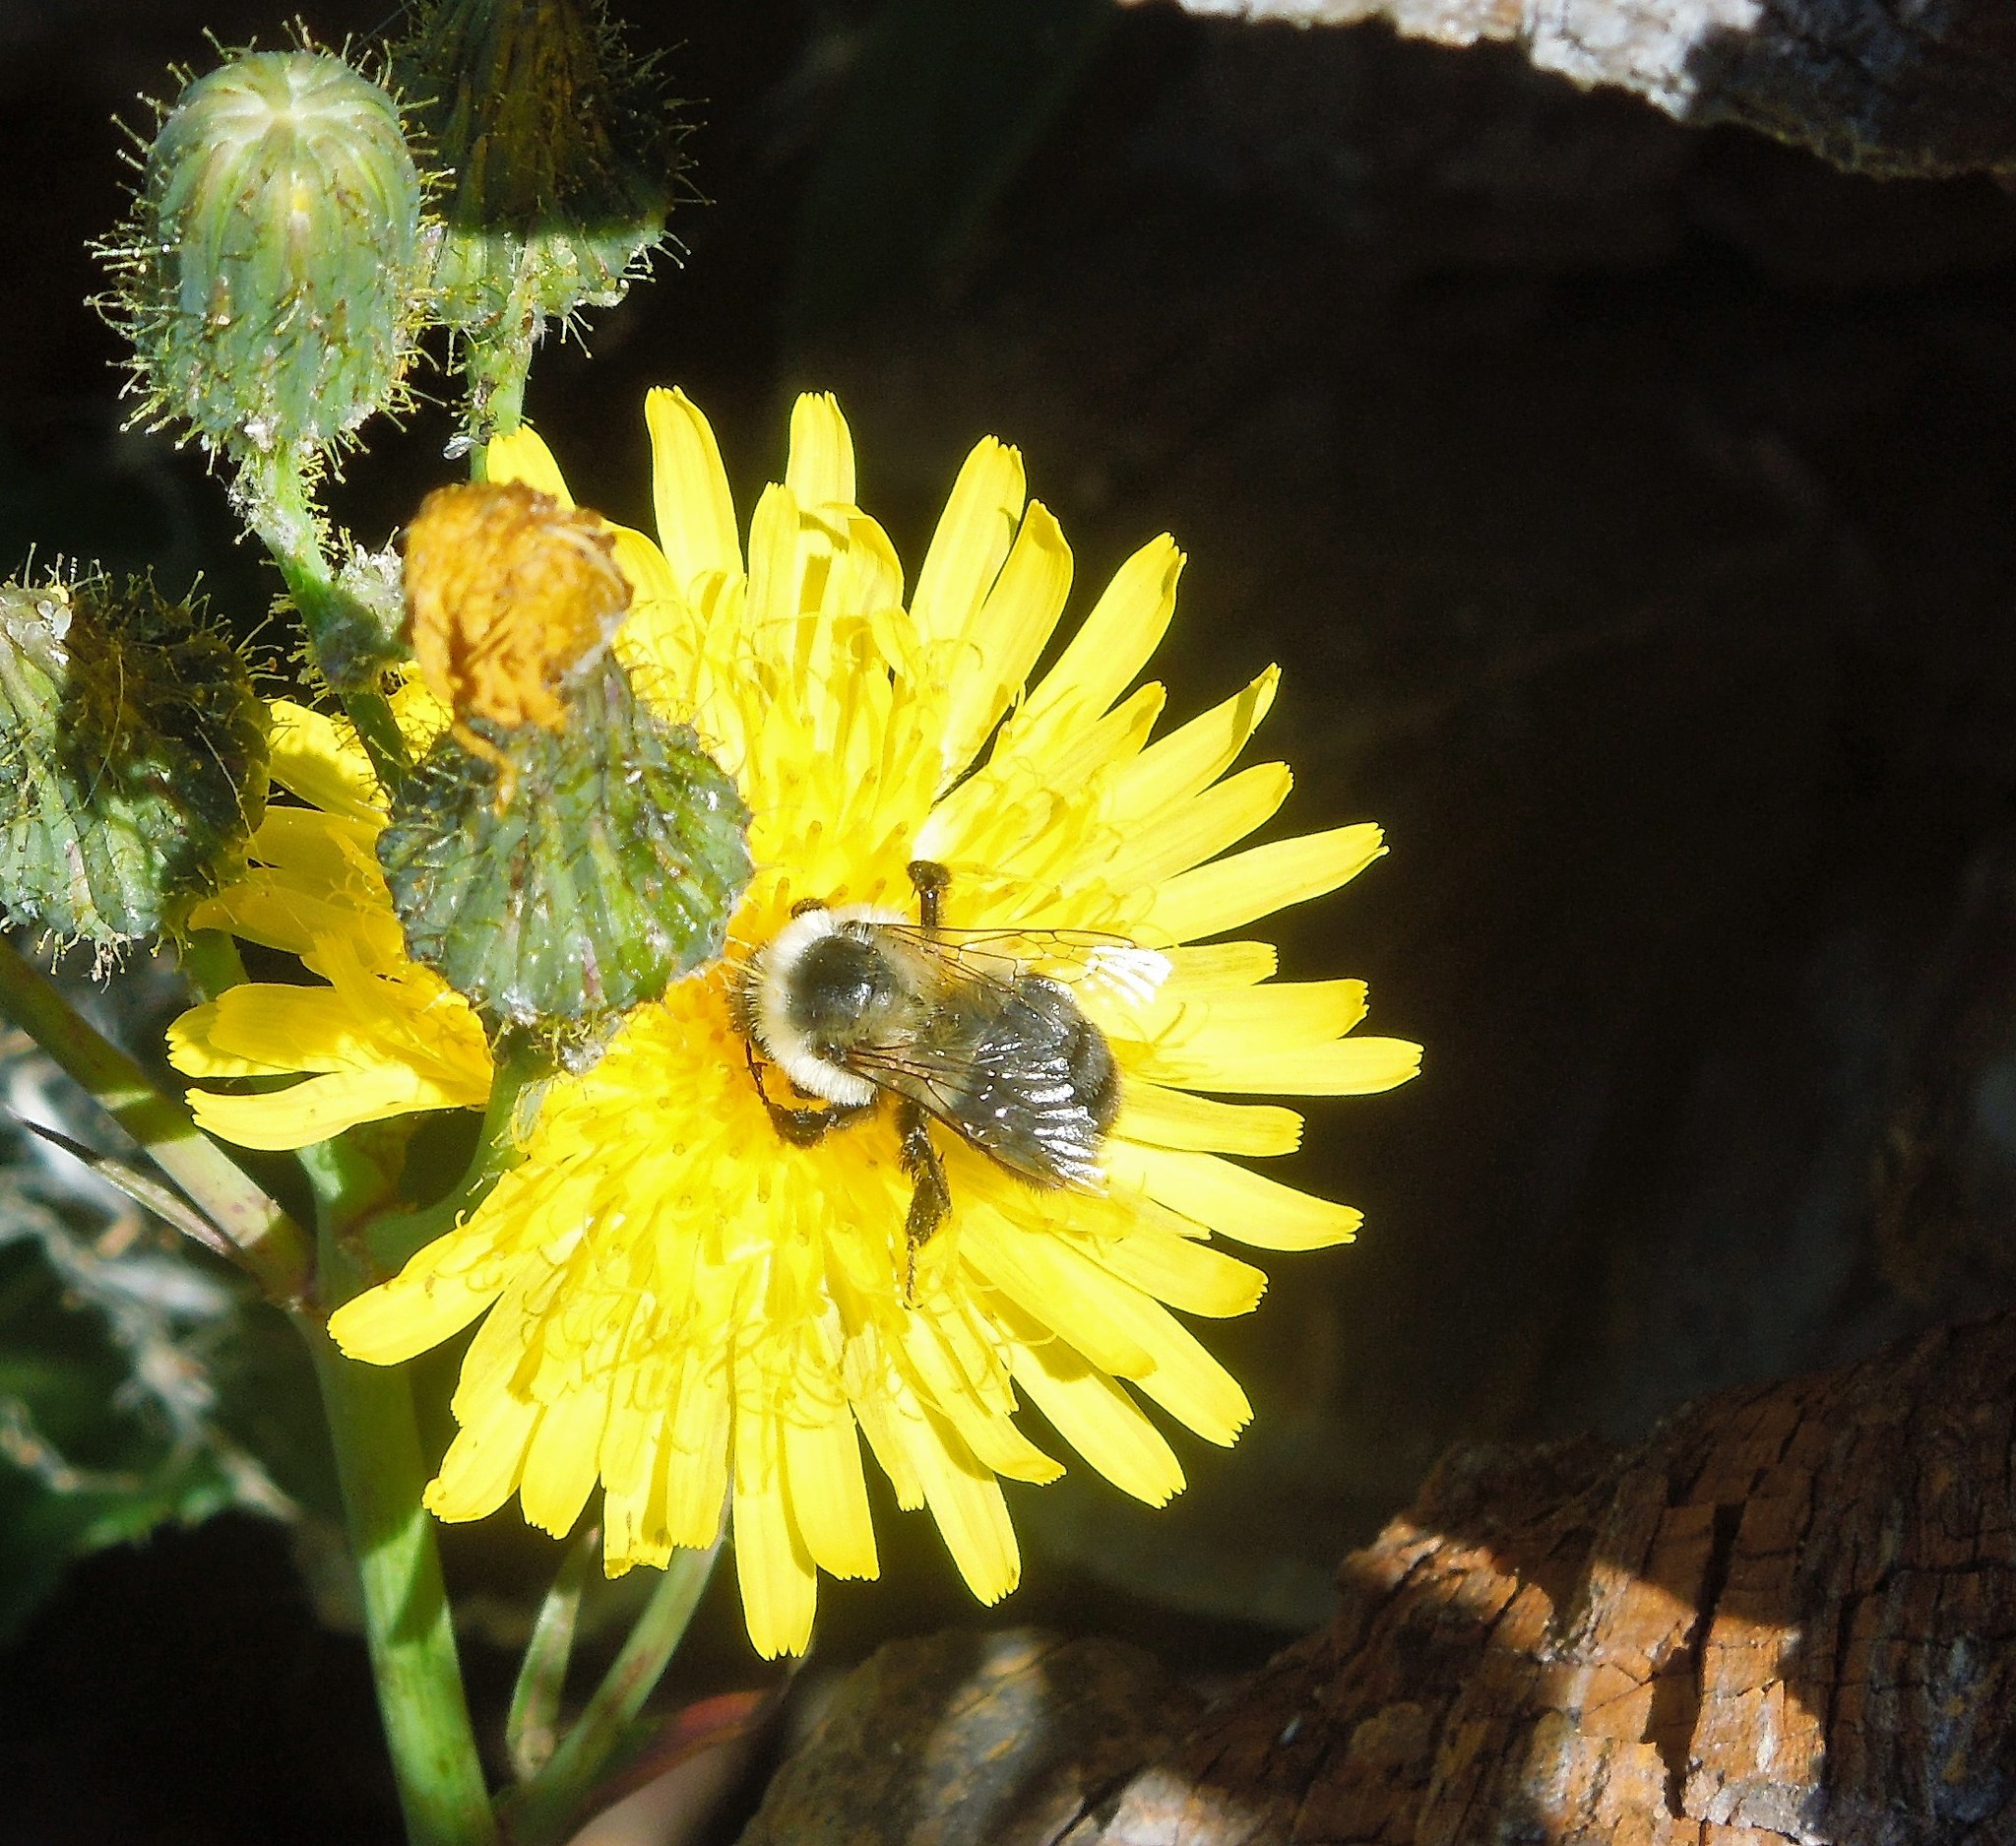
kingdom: Animalia
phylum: Arthropoda
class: Insecta
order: Hymenoptera
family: Apidae
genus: Bombus
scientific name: Bombus impatiens
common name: Common eastern bumble bee
